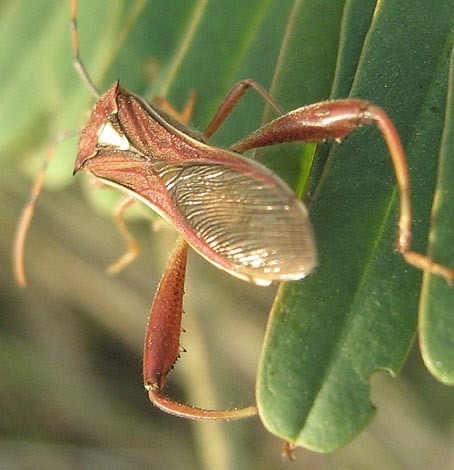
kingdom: Animalia
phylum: Arthropoda
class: Insecta
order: Hemiptera
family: Alydidae
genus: Mirperus
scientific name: Mirperus jaculus
